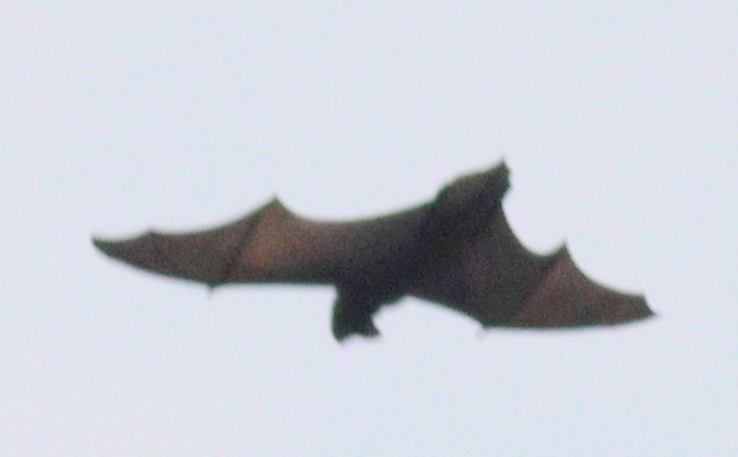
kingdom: Animalia
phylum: Chordata
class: Mammalia
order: Chiroptera
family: Vespertilionidae
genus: Nyctalus
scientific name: Nyctalus noctula
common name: Noctule
